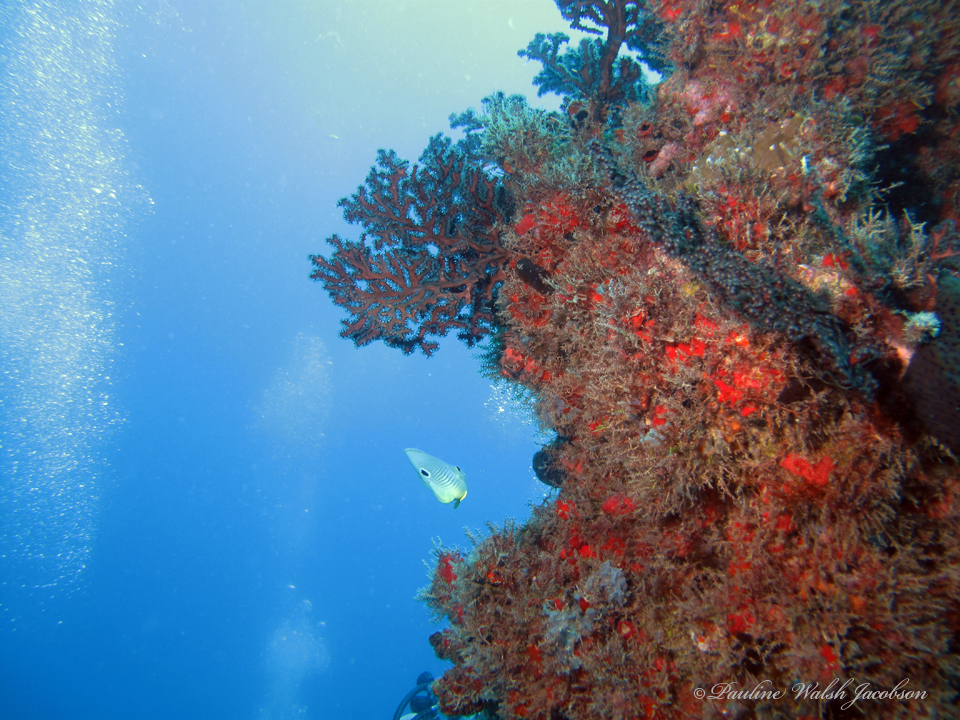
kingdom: Animalia
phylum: Chordata
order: Perciformes
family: Chaetodontidae
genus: Chaetodon
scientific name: Chaetodon capistratus
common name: Kete
